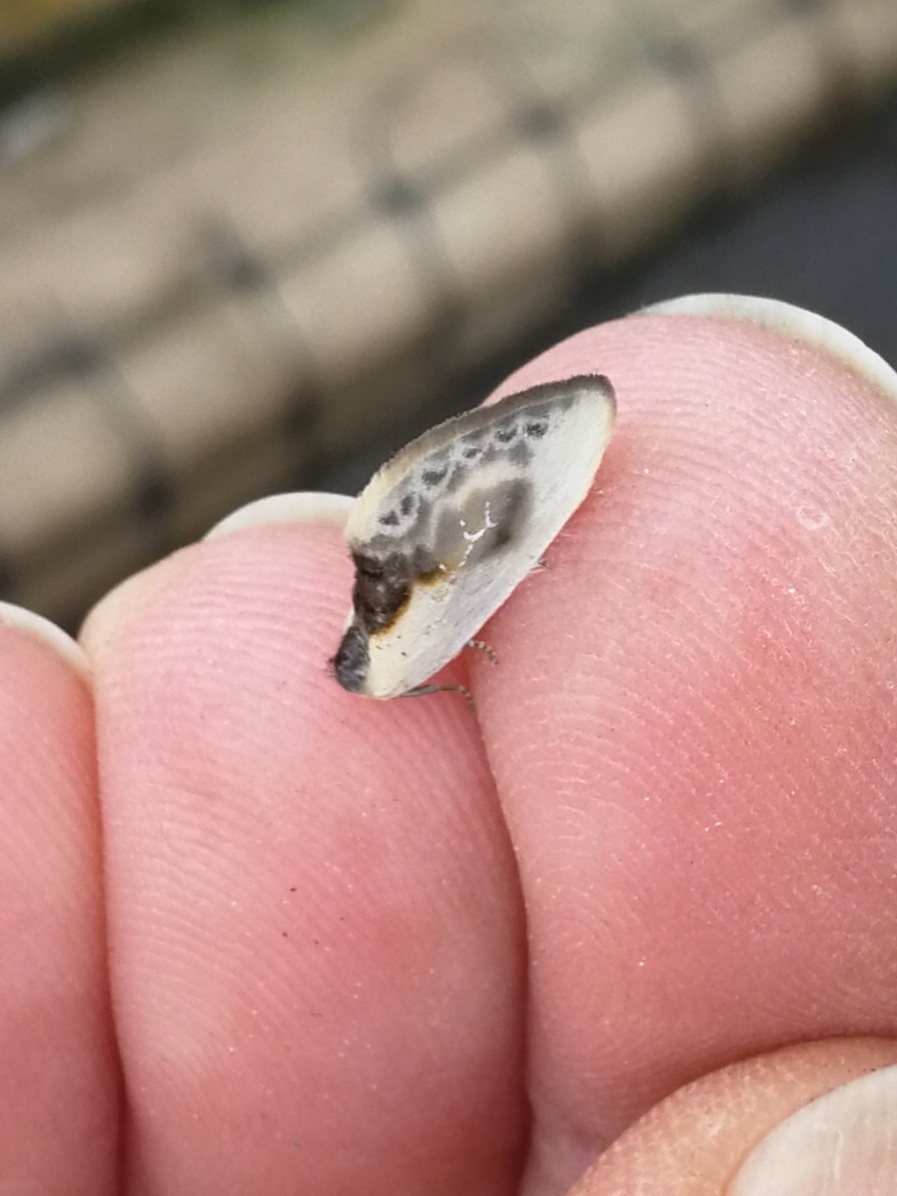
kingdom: Animalia
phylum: Arthropoda
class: Insecta
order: Lepidoptera
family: Drepanidae
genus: Cilix
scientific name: Cilix glaucata
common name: Chinese character
